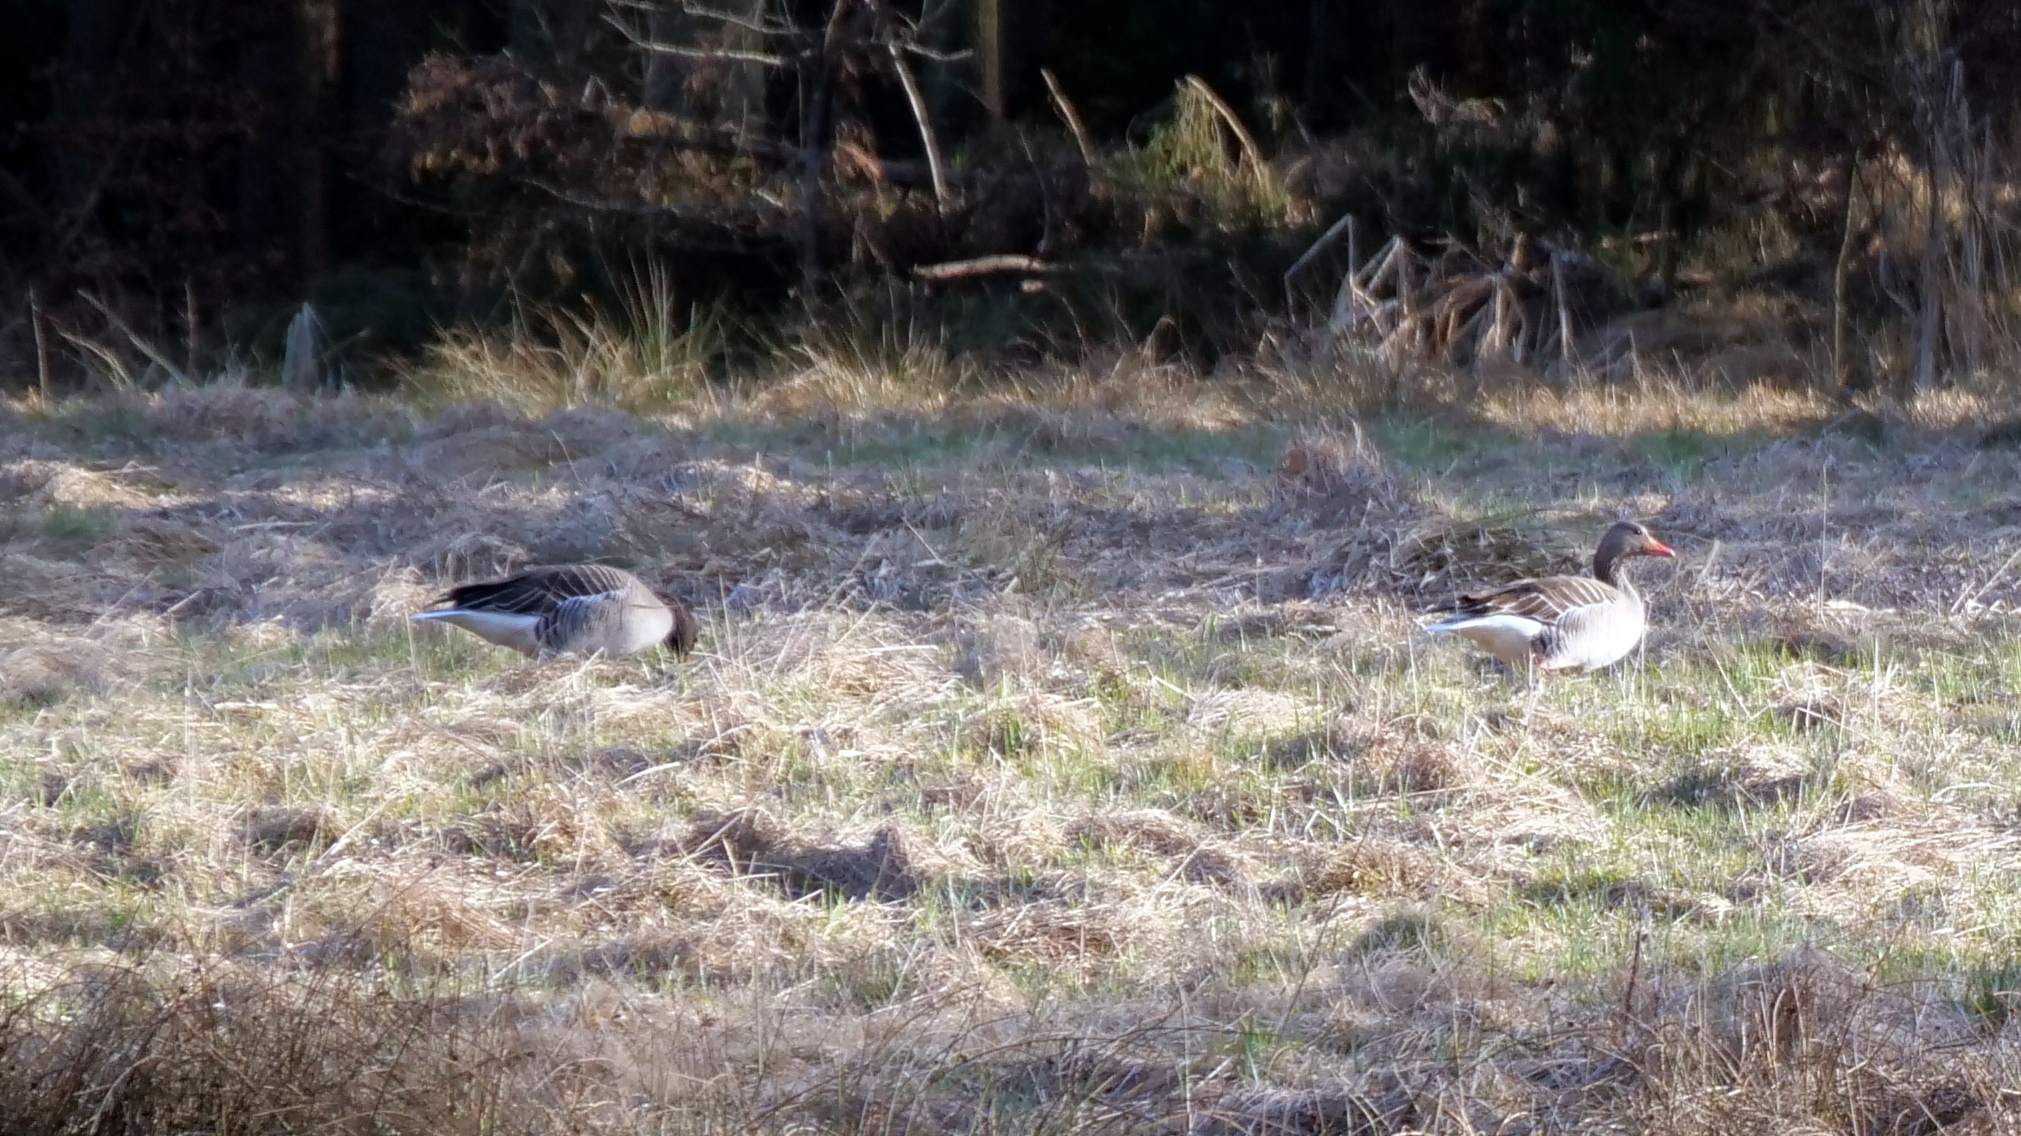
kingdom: Animalia
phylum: Chordata
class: Aves
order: Anseriformes
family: Anatidae
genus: Anser
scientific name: Anser anser
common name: Greylag goose
